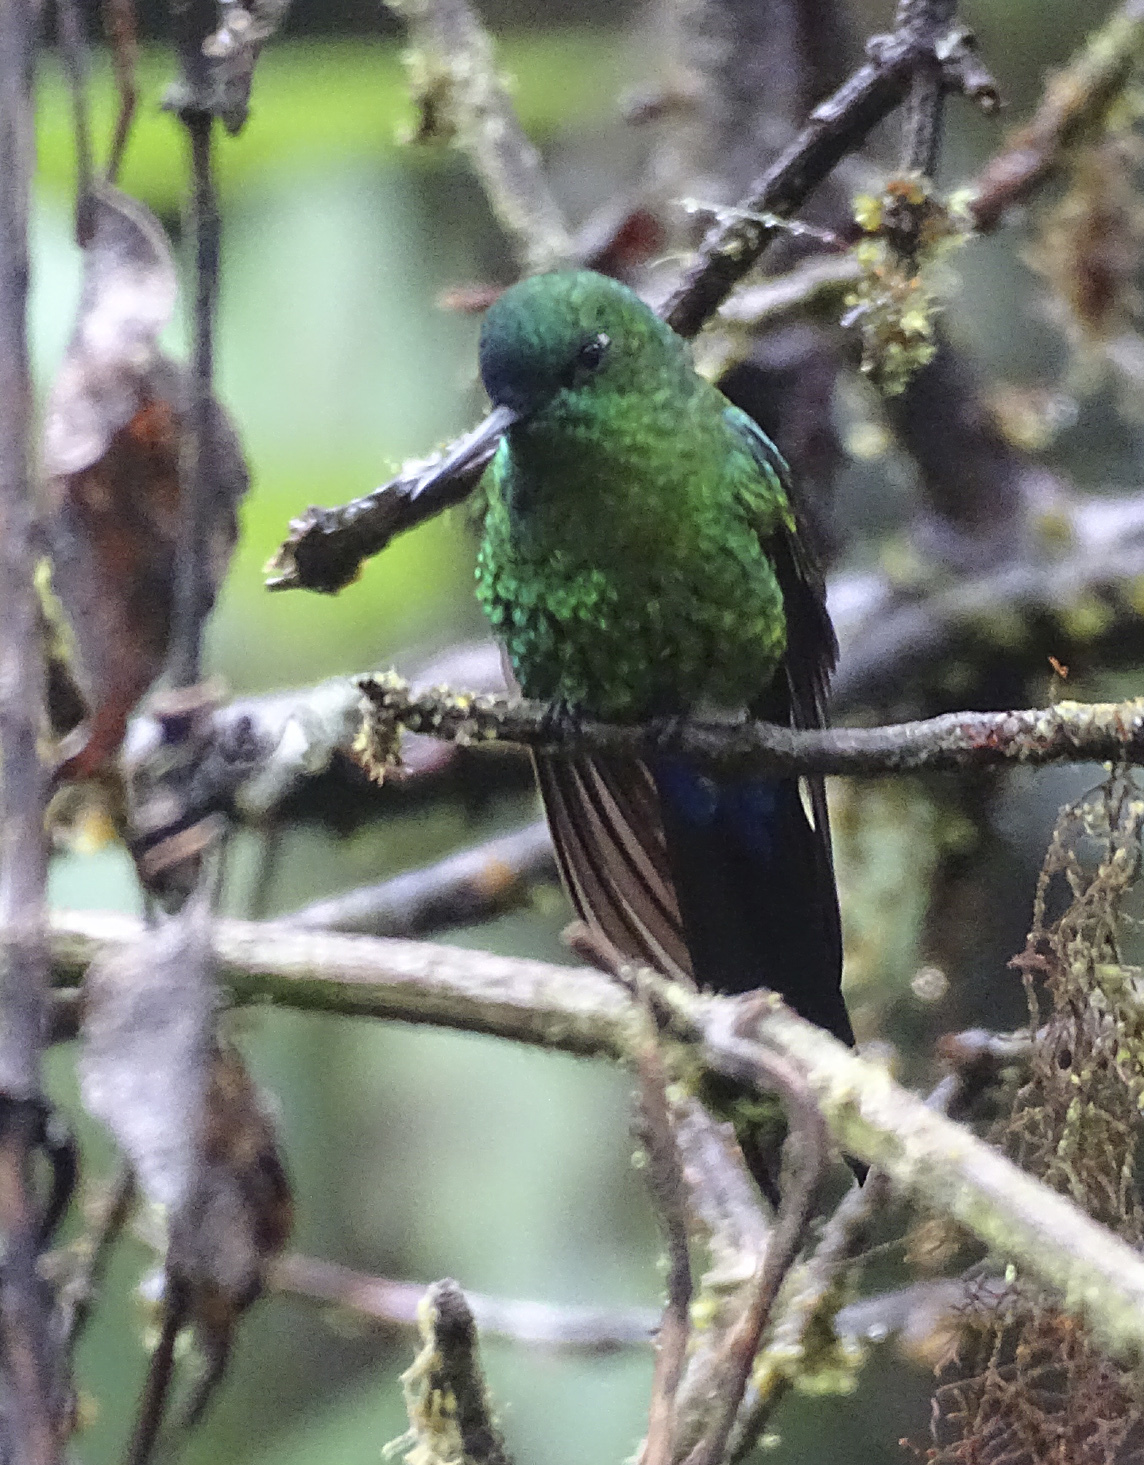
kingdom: Animalia
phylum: Chordata
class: Aves
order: Apodiformes
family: Trochilidae
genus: Eriocnemis
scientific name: Eriocnemis luciani
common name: Sapphire-vented puffleg
